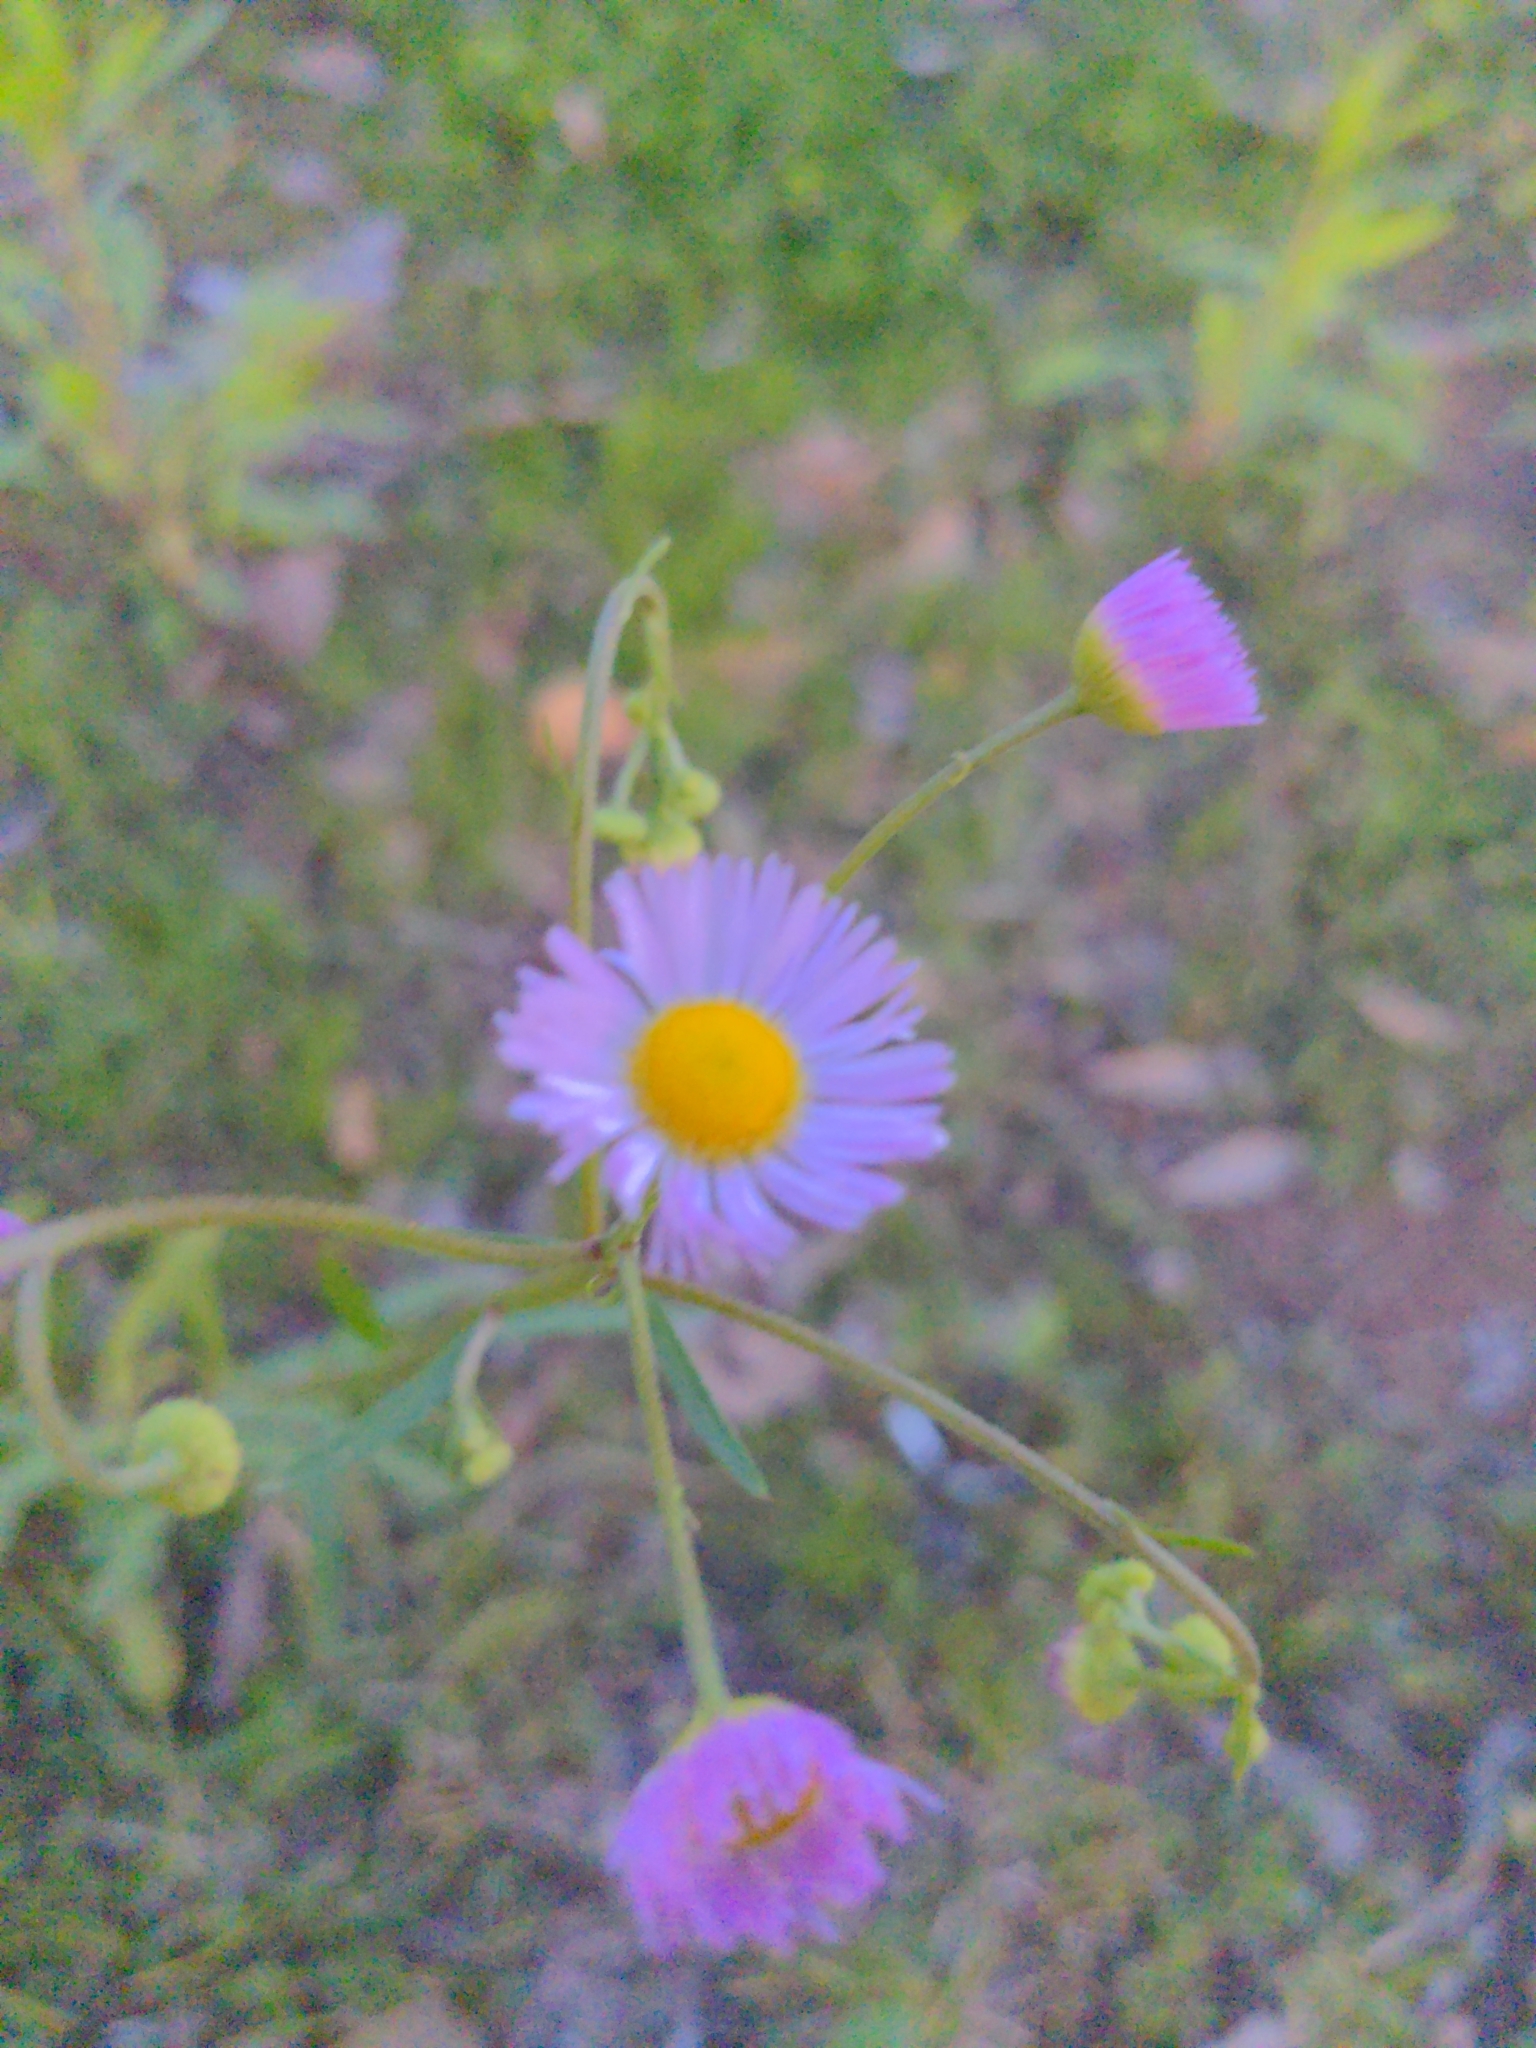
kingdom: Plantae
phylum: Tracheophyta
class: Magnoliopsida
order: Asterales
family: Asteraceae
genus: Erigeron
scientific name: Erigeron strigosus
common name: Common eastern fleabane
